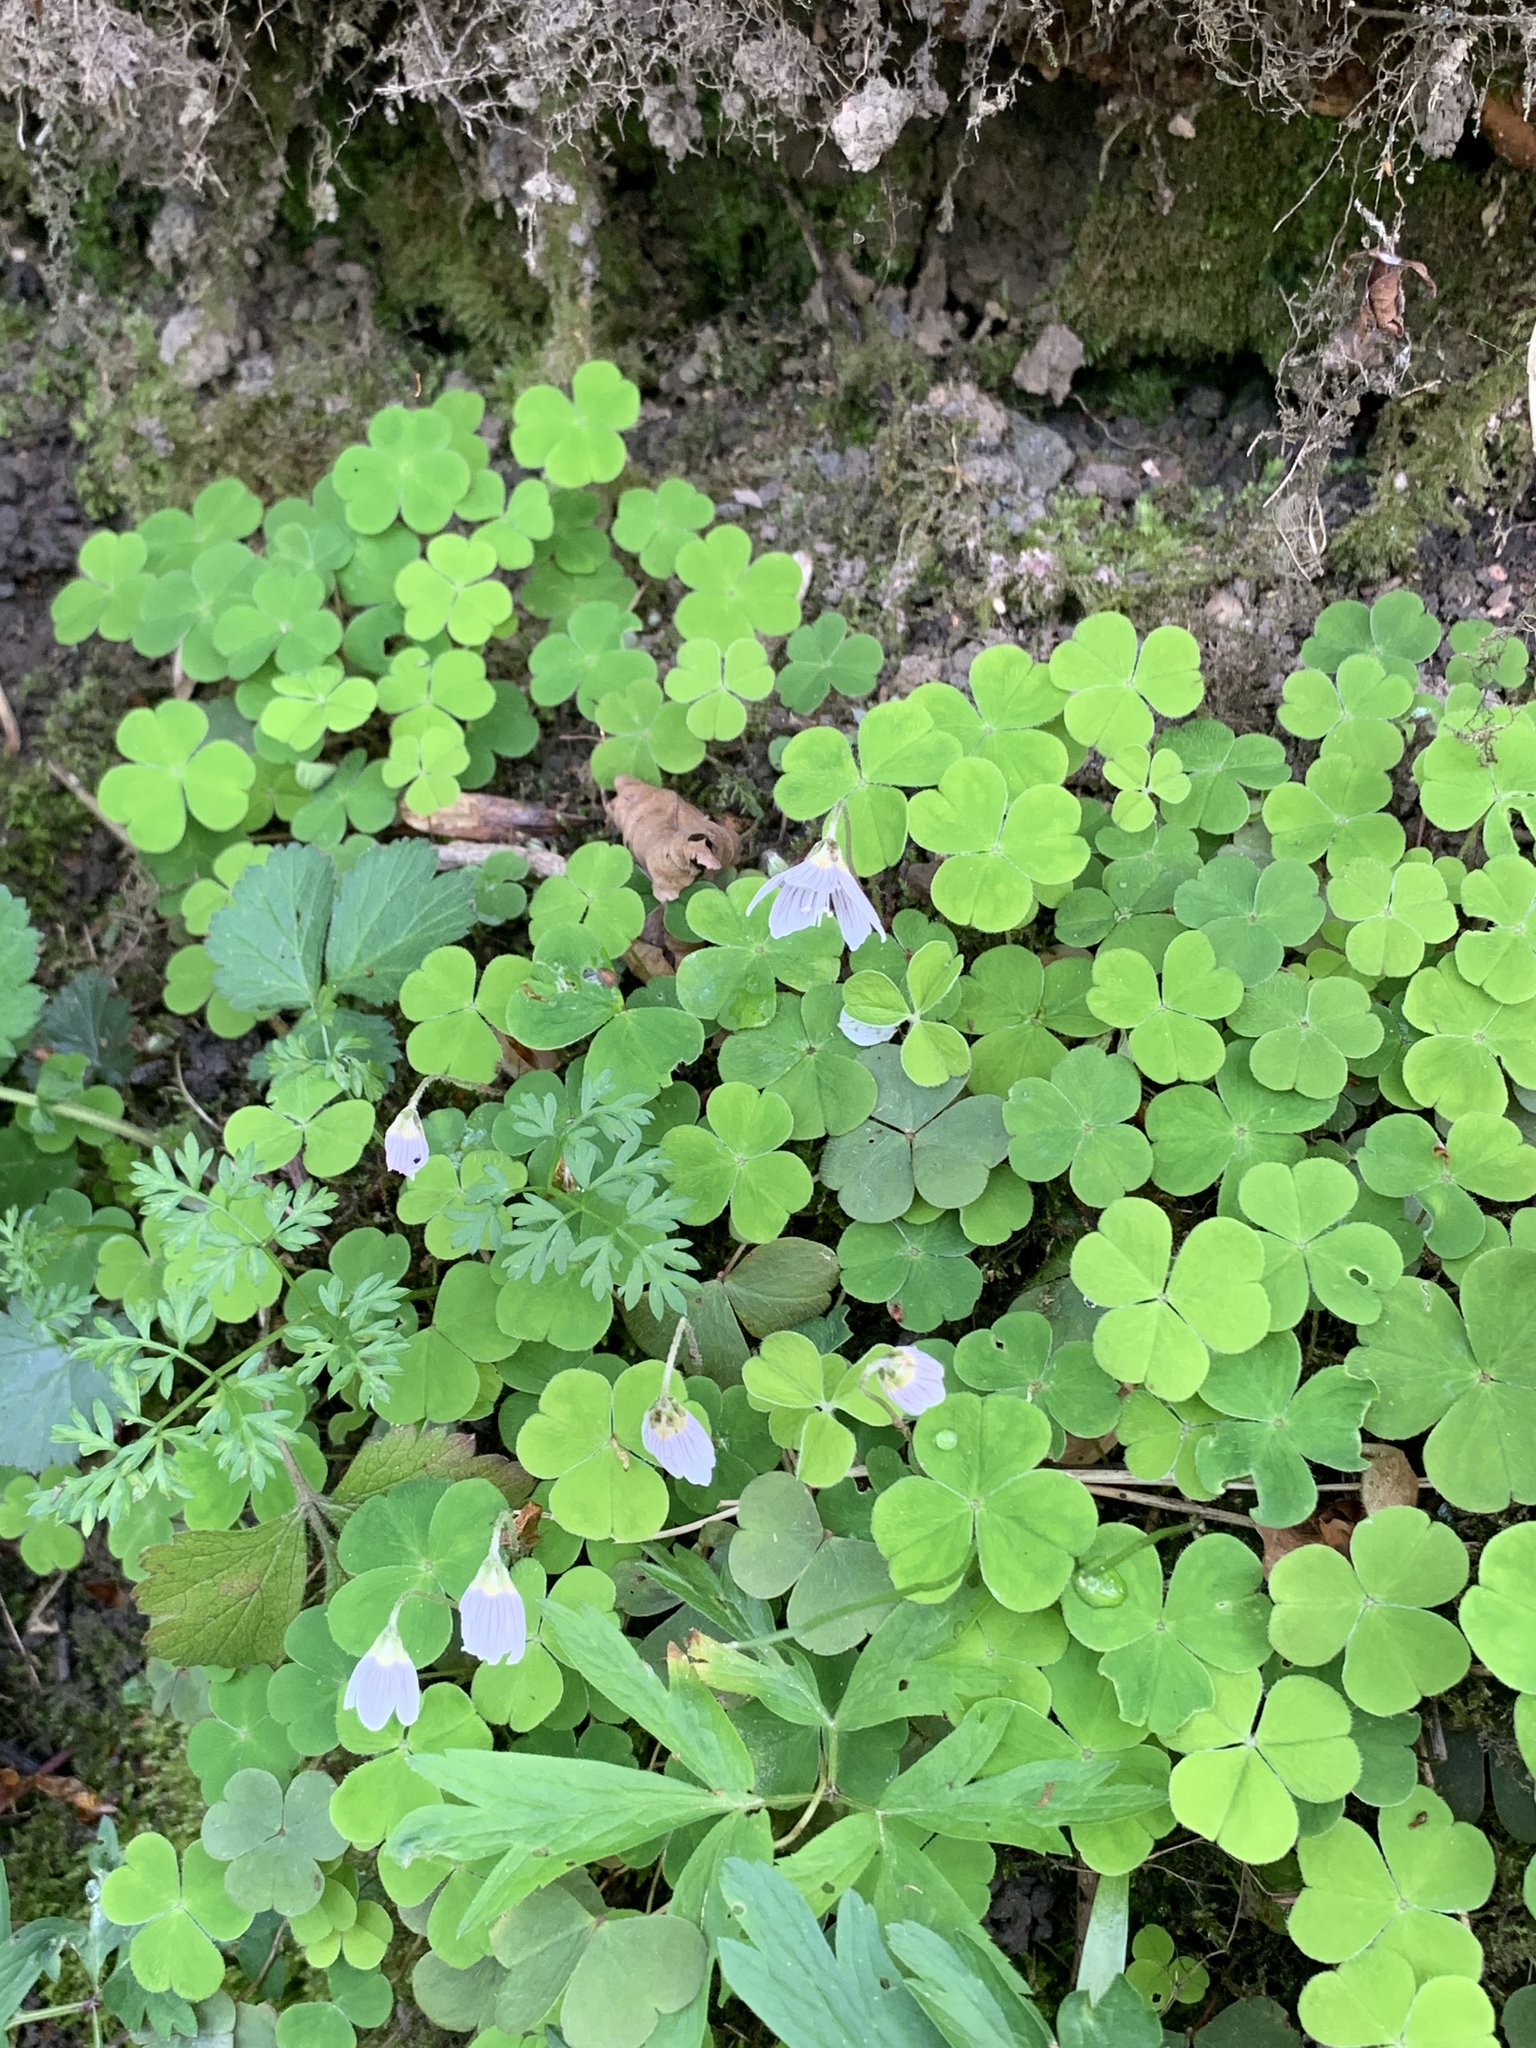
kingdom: Plantae
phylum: Tracheophyta
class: Magnoliopsida
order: Oxalidales
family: Oxalidaceae
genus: Oxalis
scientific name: Oxalis acetosella
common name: Wood-sorrel
